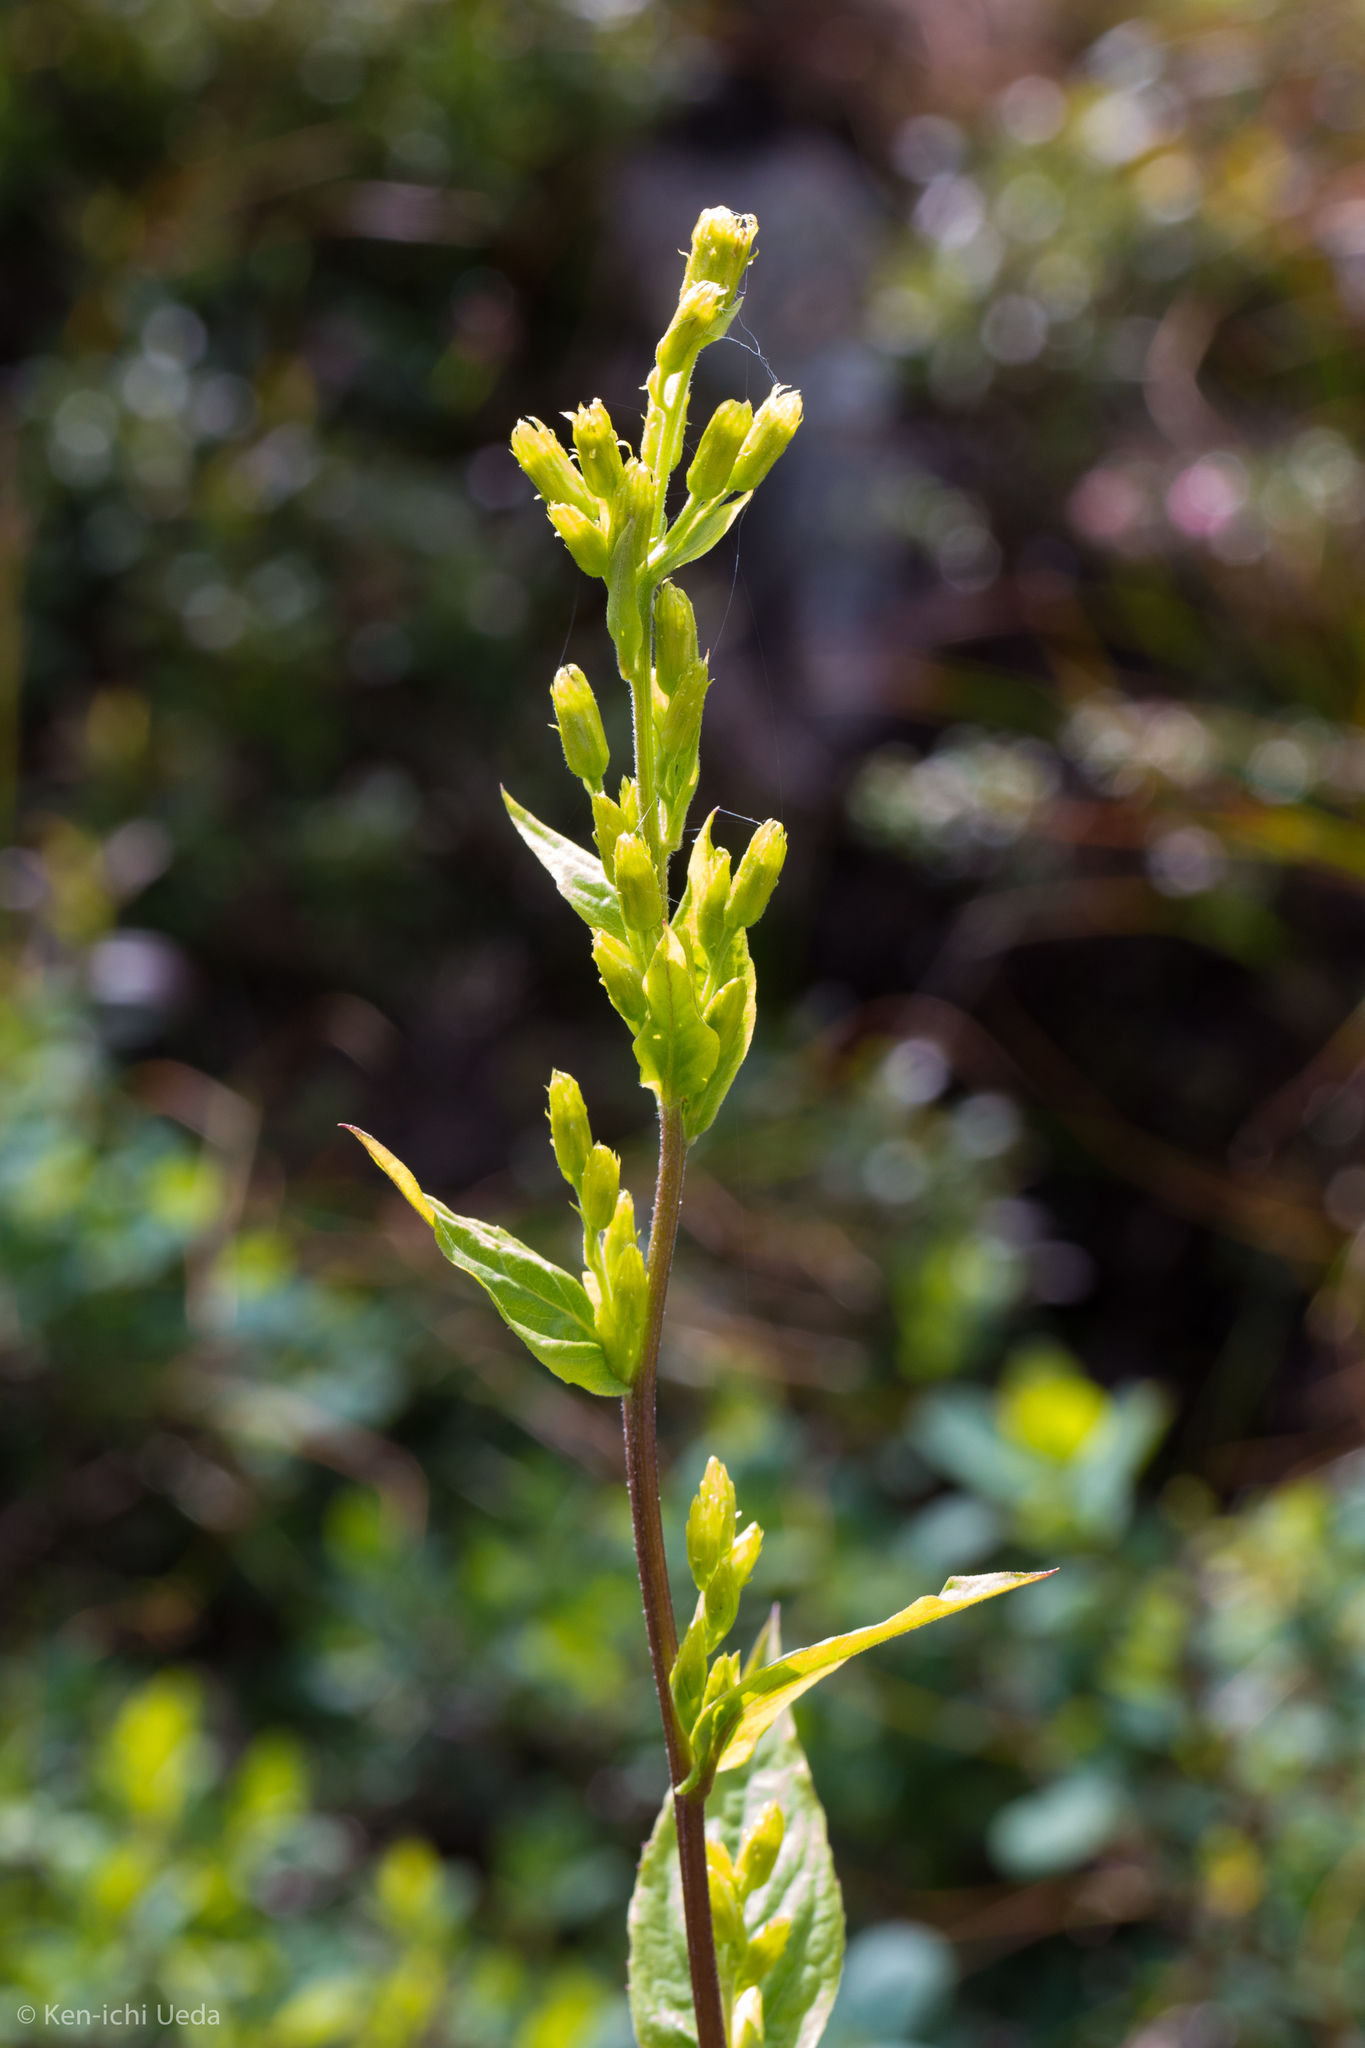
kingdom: Plantae
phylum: Tracheophyta
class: Magnoliopsida
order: Asterales
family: Asteraceae
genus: Solidago
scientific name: Solidago macrophylla
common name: Large-leaved goldenrod
